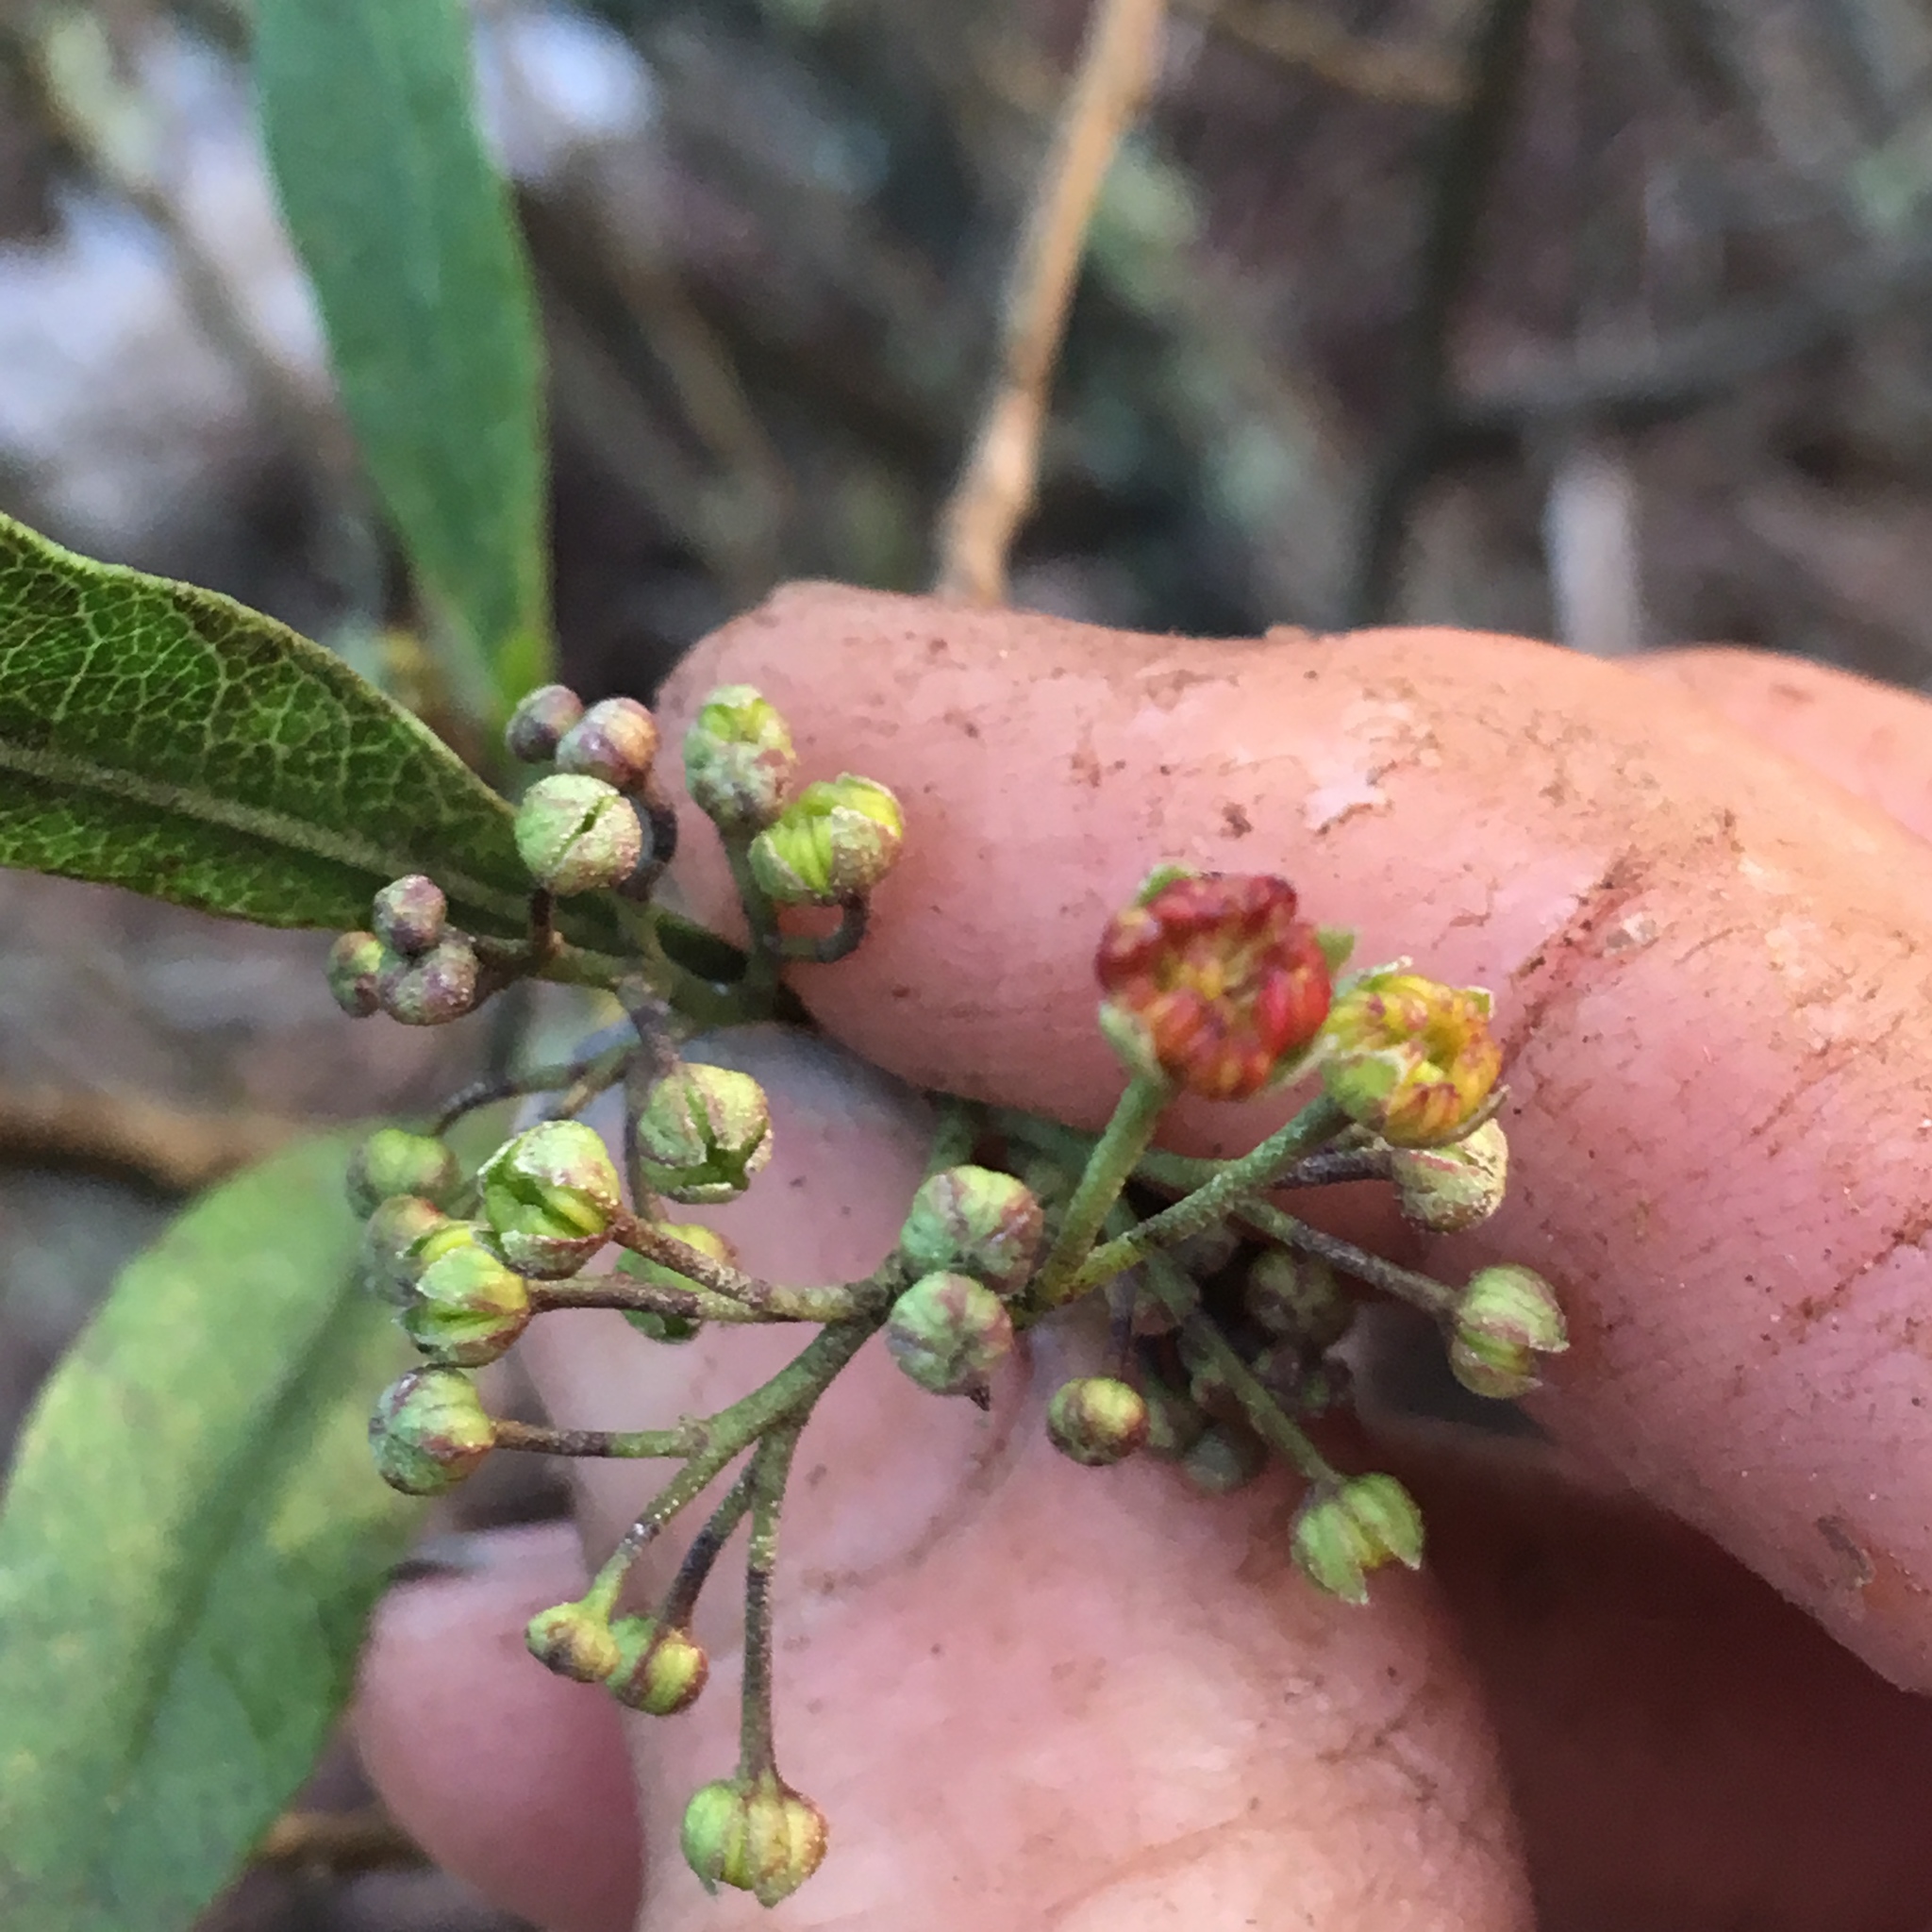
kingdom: Plantae
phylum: Tracheophyta
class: Magnoliopsida
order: Sapindales
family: Sapindaceae
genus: Dodonaea
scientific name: Dodonaea viscosa
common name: Hopbush
